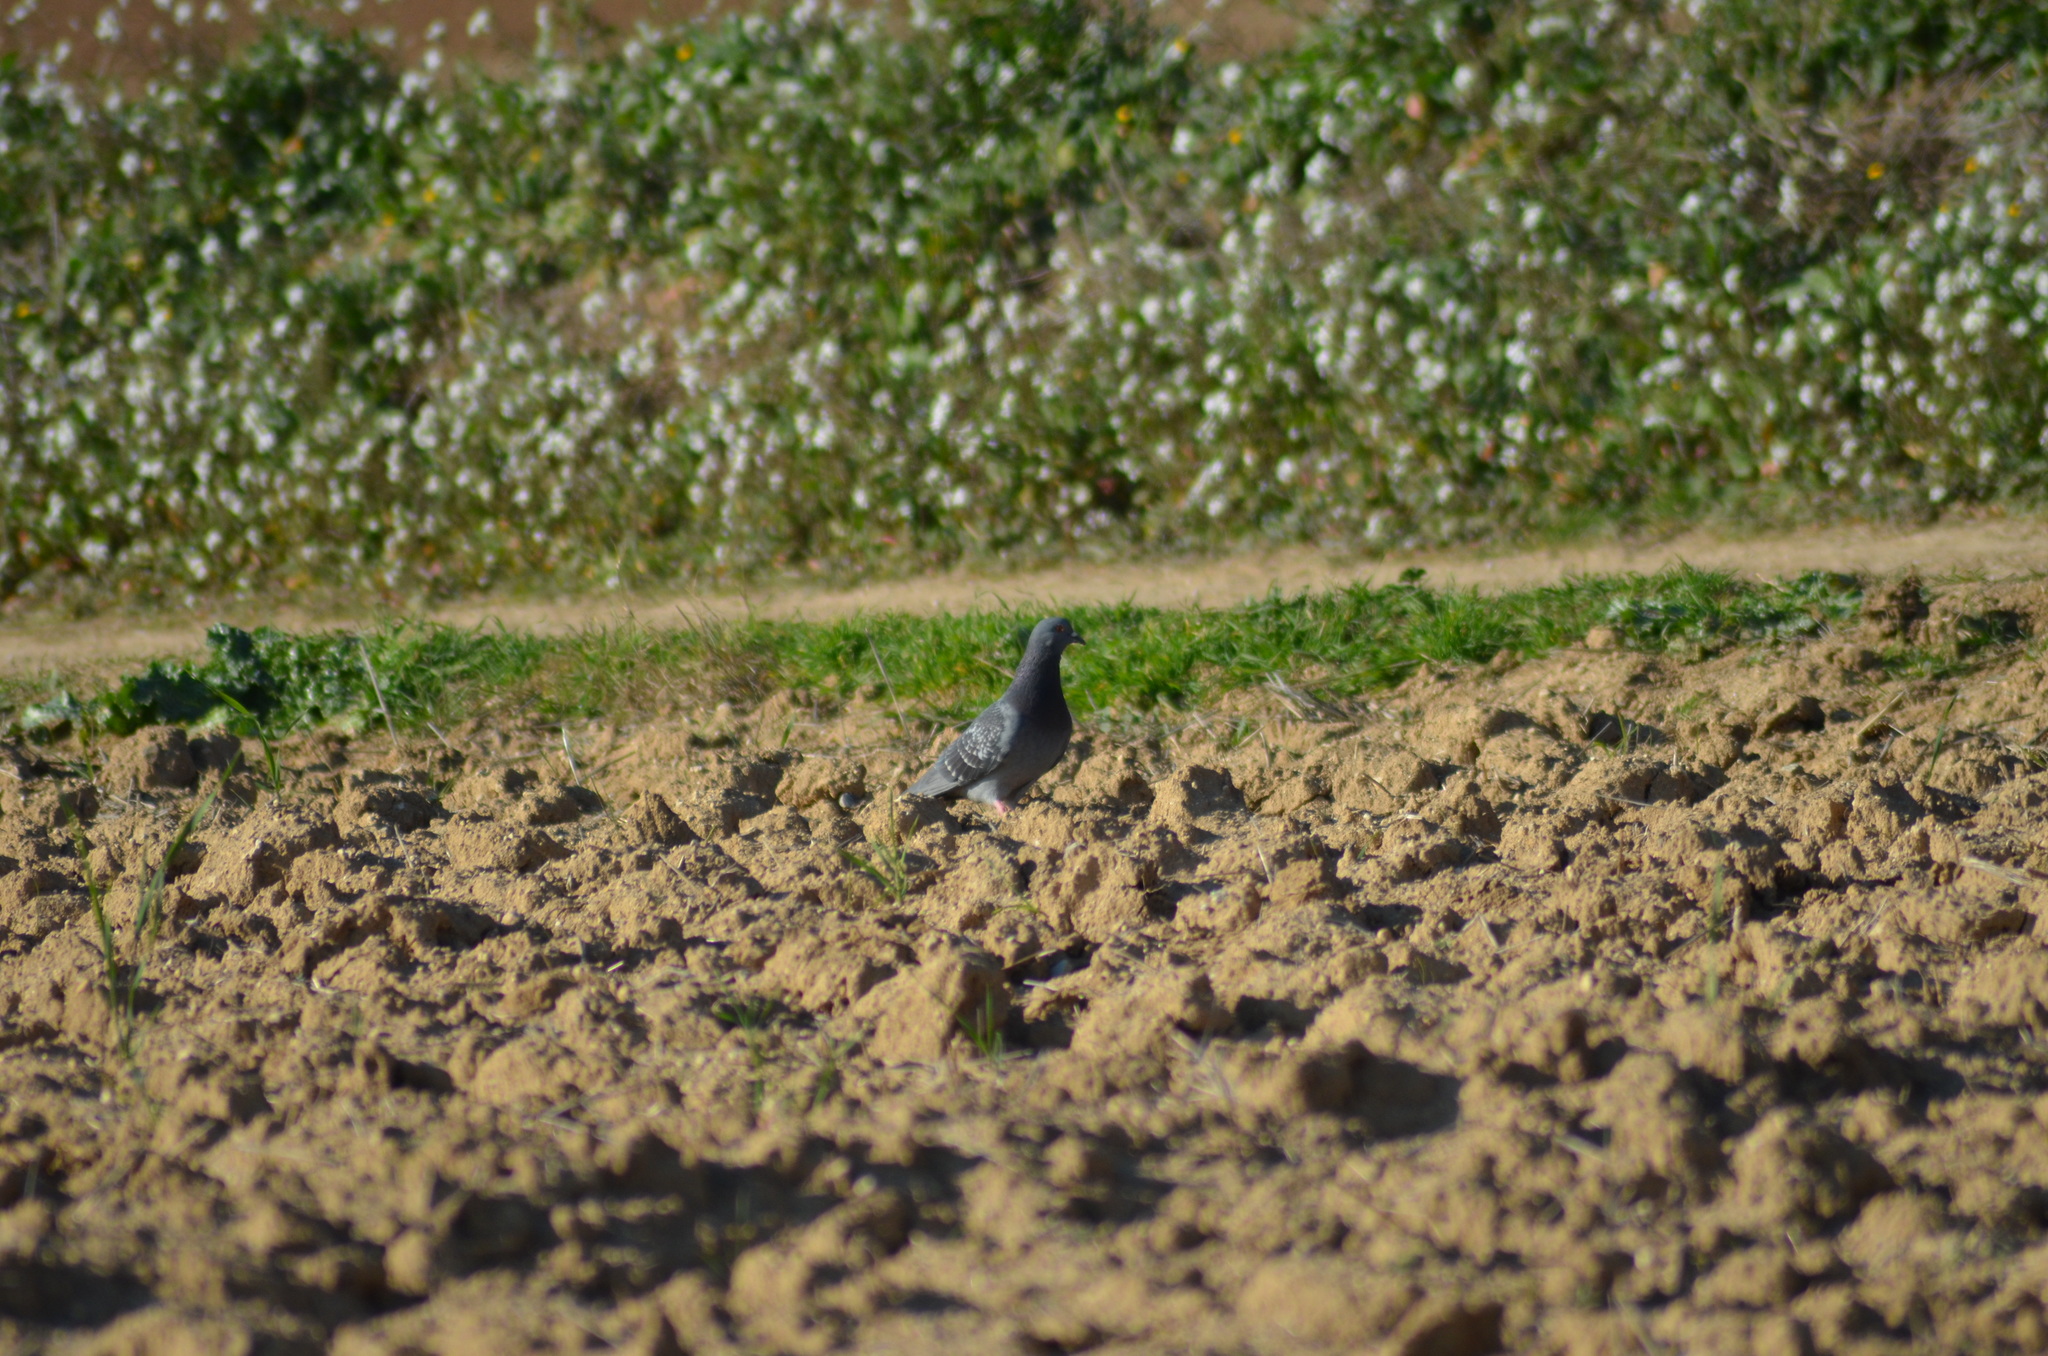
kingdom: Animalia
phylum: Chordata
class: Aves
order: Columbiformes
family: Columbidae
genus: Columba
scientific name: Columba livia
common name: Rock pigeon
